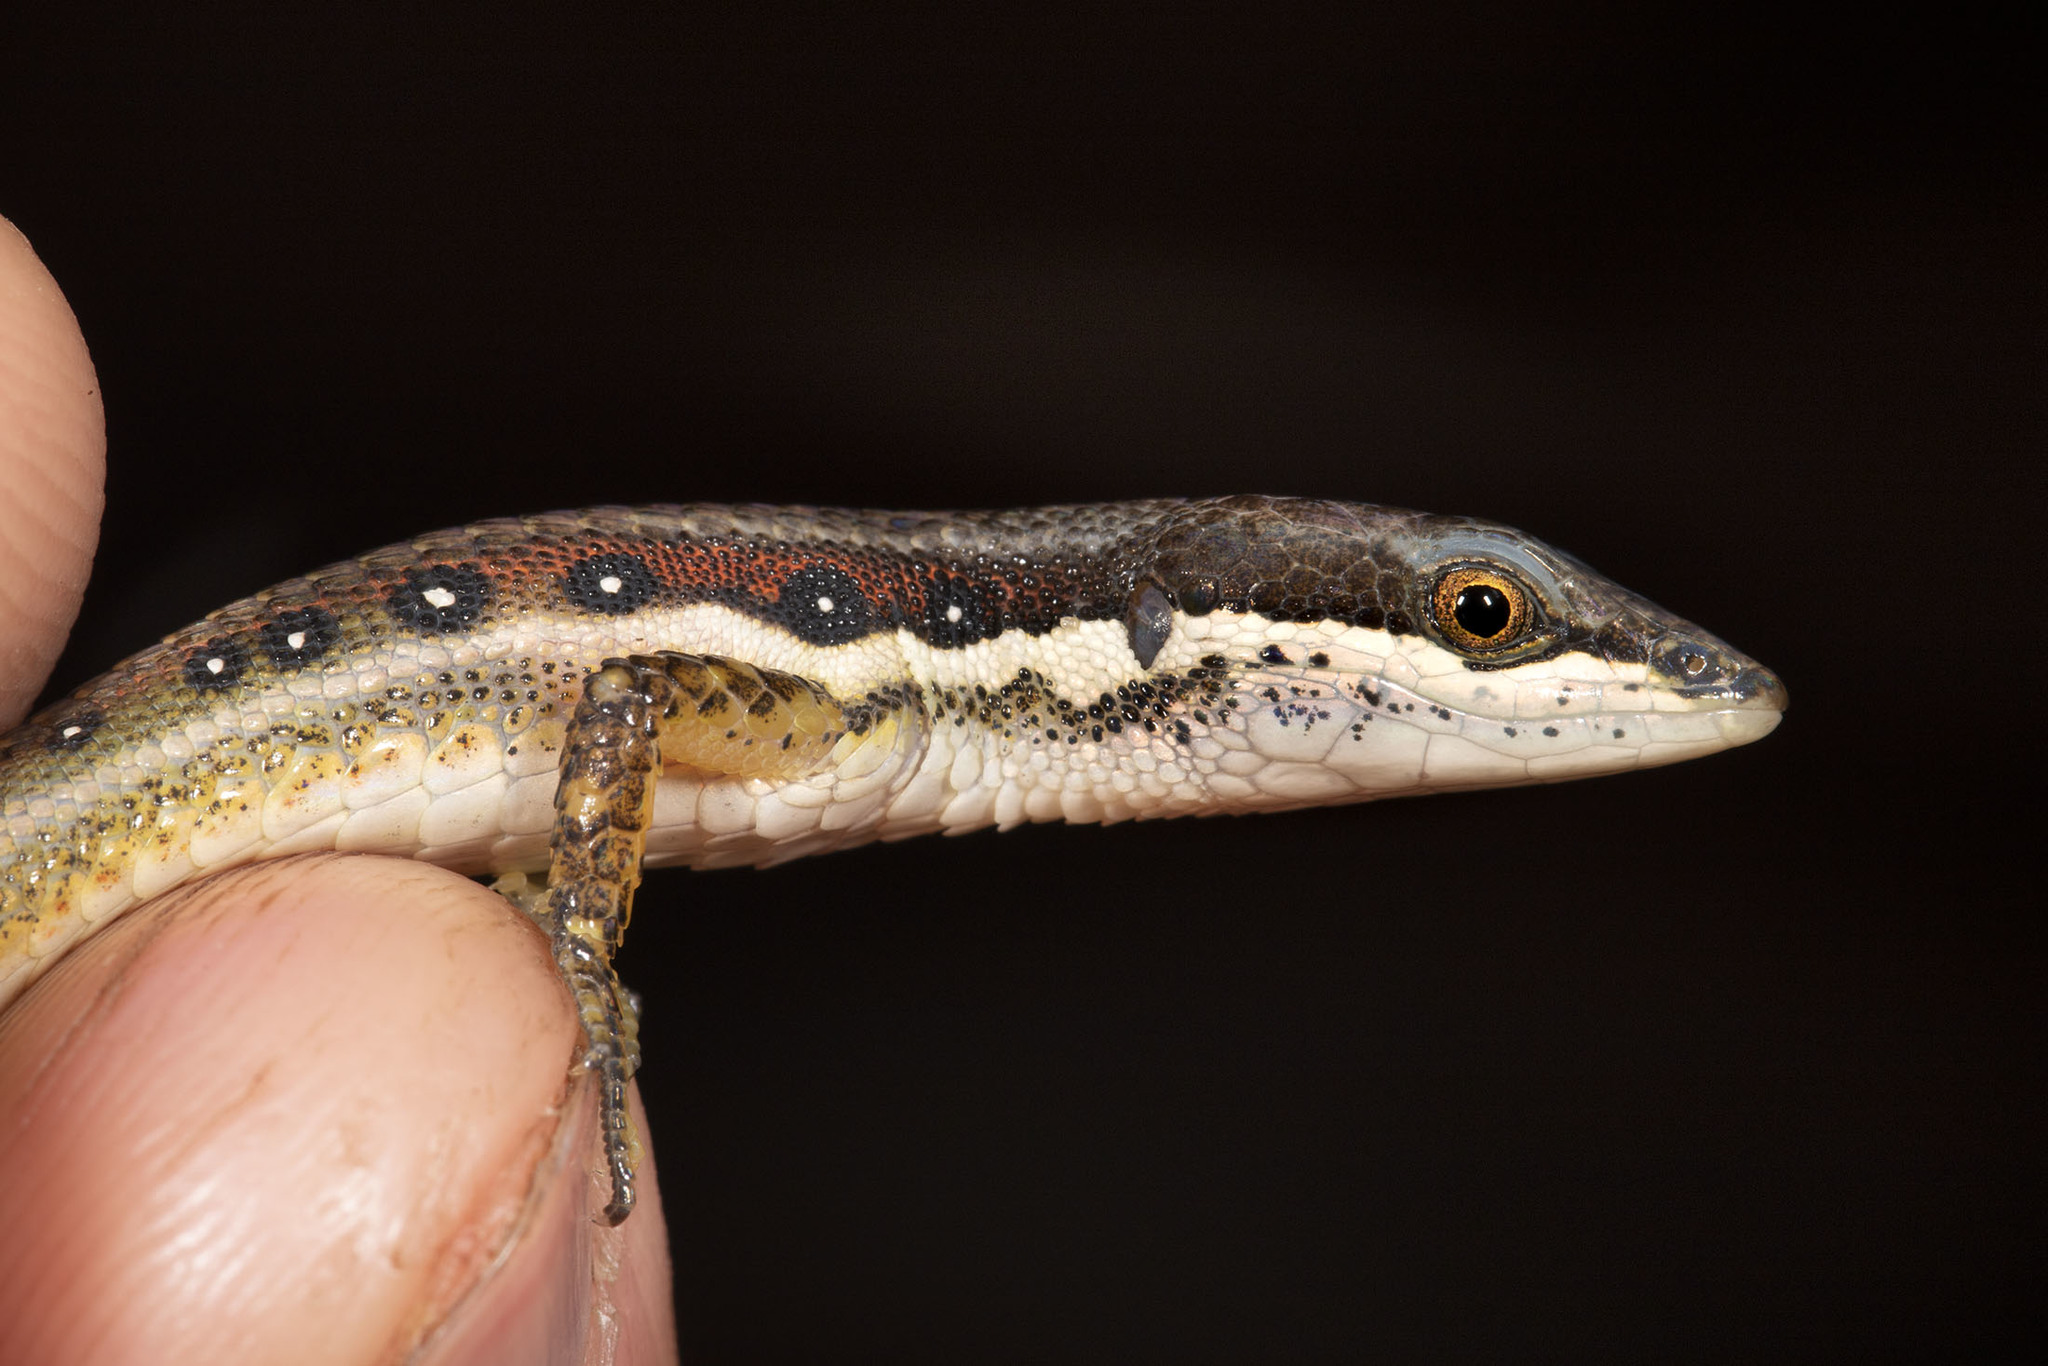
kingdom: Animalia
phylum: Chordata
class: Squamata
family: Gymnophthalmidae
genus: Cercosaura
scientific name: Cercosaura oshaughnessyi
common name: White-striped eyed lizard
